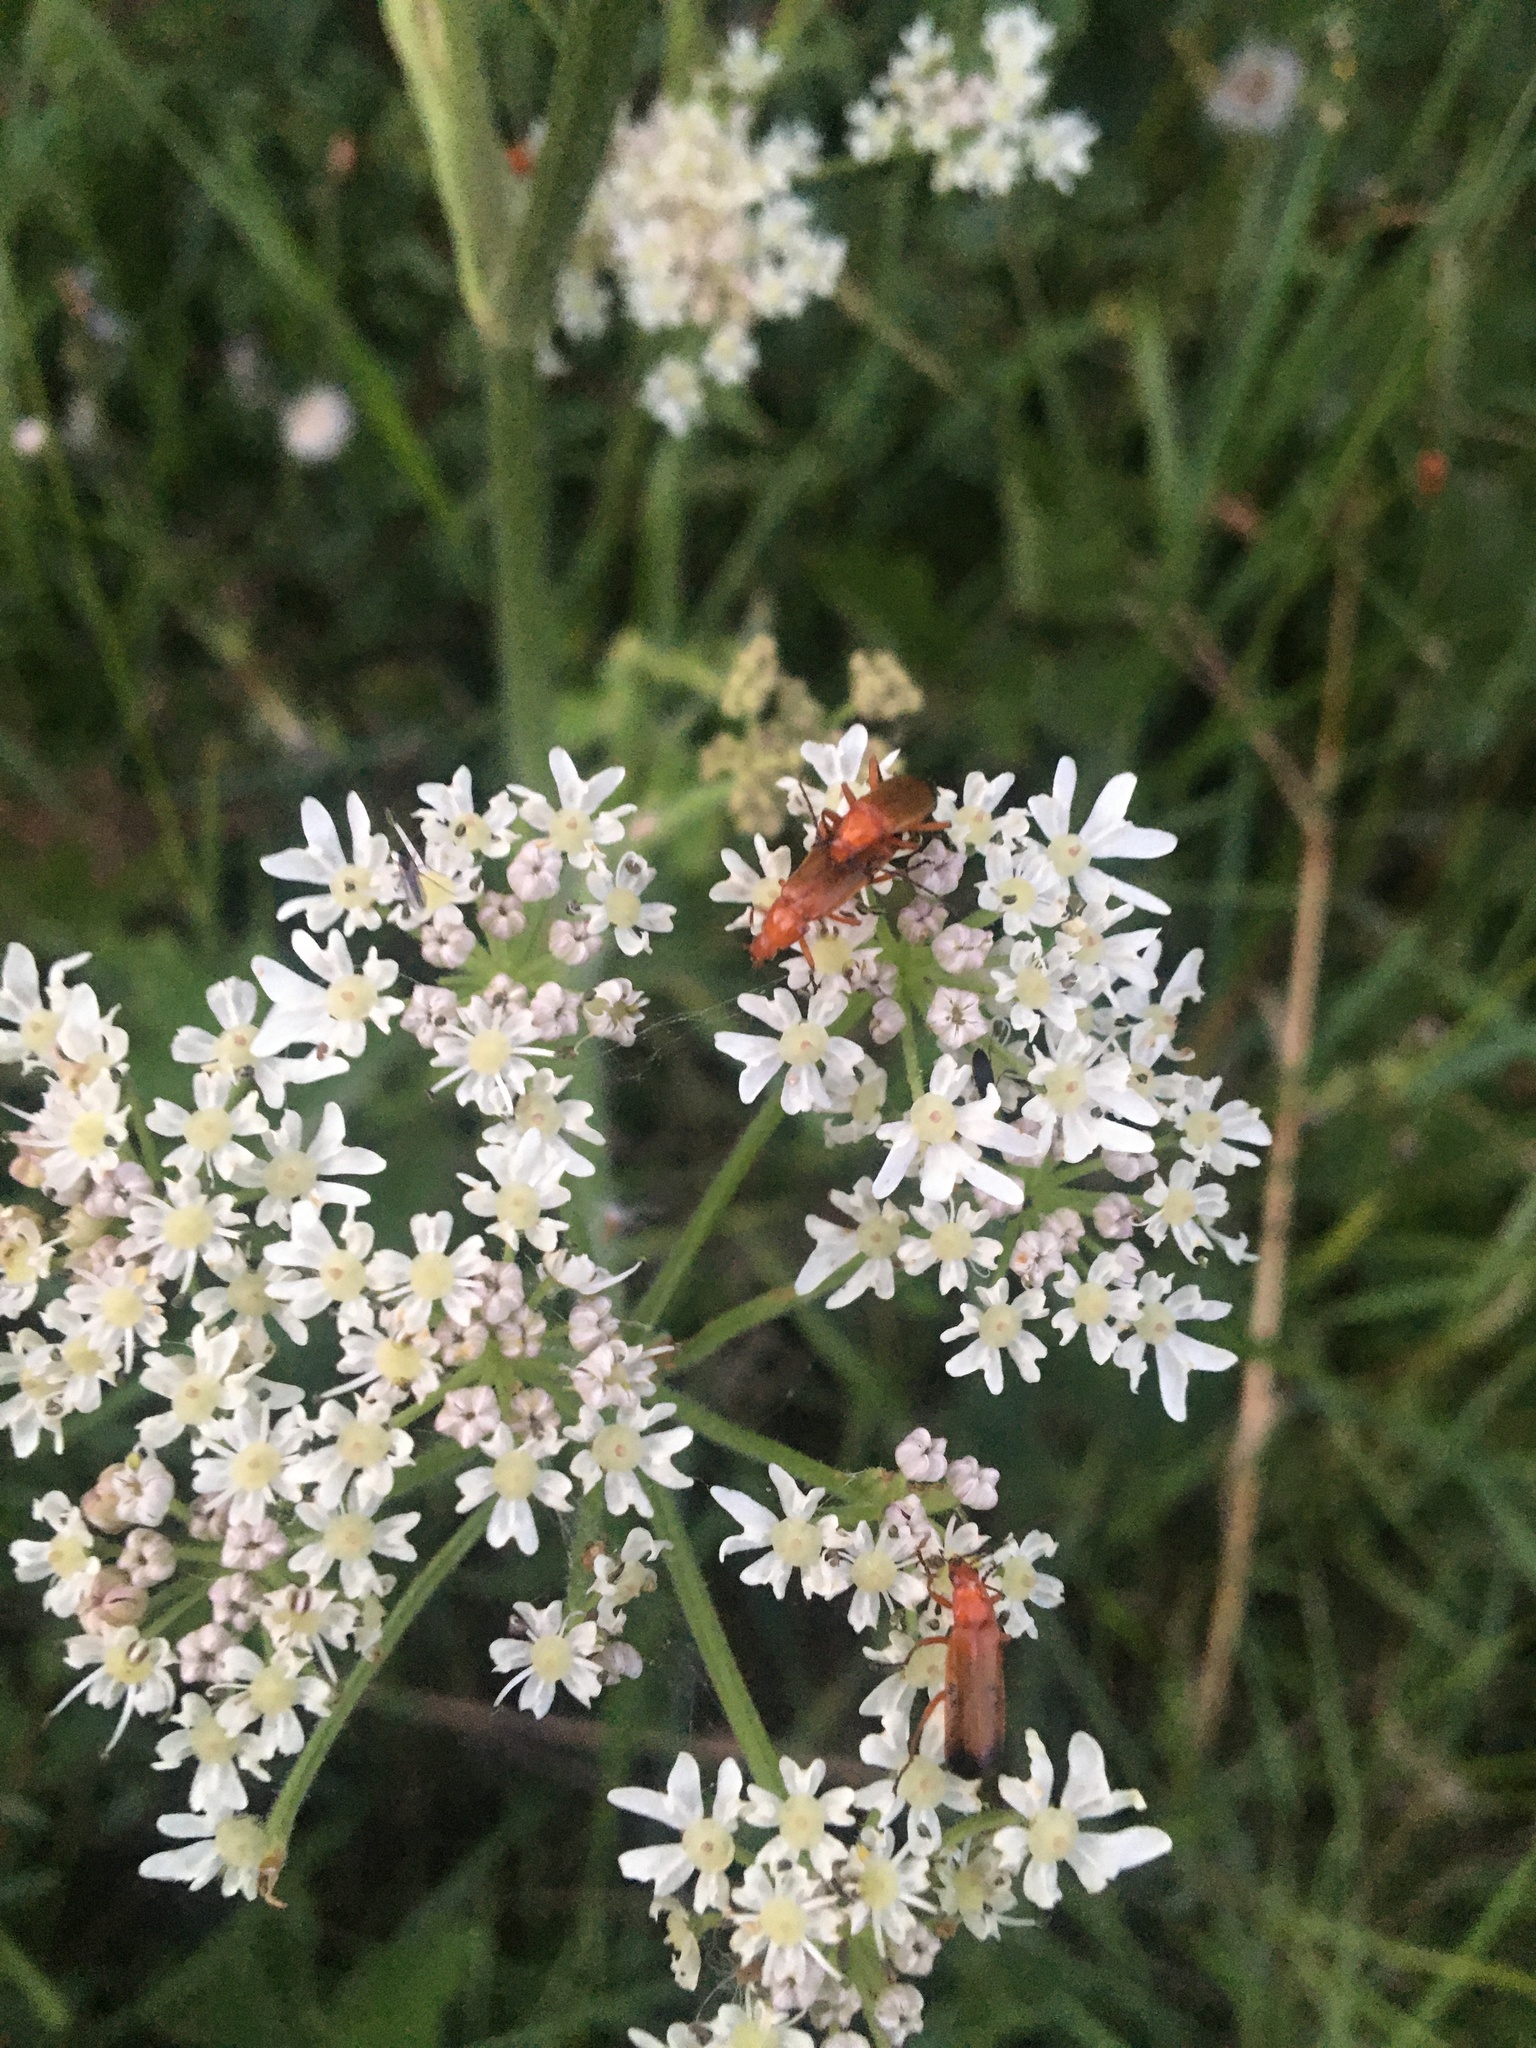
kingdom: Animalia
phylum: Arthropoda
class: Insecta
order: Coleoptera
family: Cantharidae
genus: Rhagonycha
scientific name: Rhagonycha fulva
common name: Common red soldier beetle
